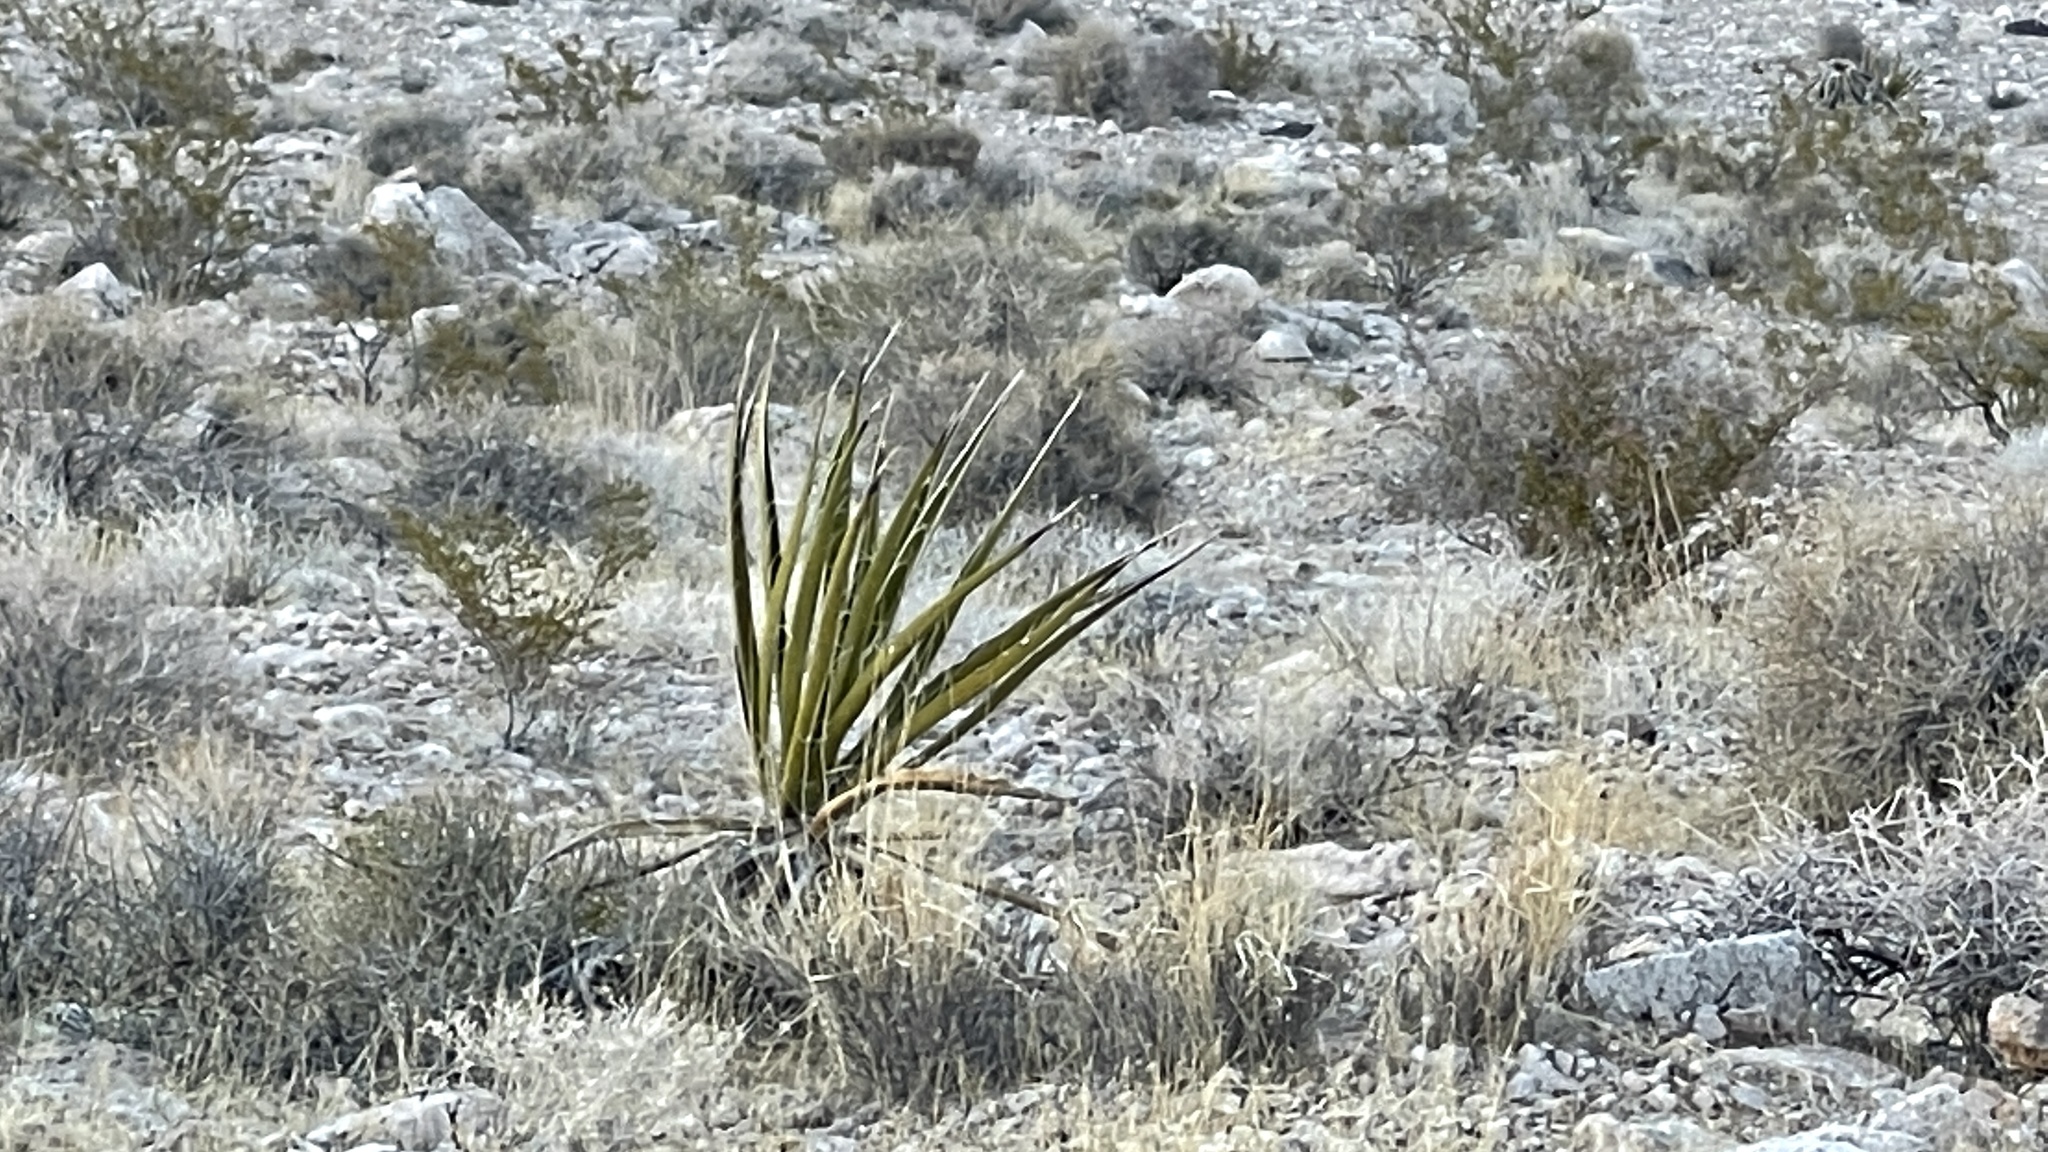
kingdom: Plantae
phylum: Tracheophyta
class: Liliopsida
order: Asparagales
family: Asparagaceae
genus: Yucca
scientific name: Yucca schidigera
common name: Mojave yucca
